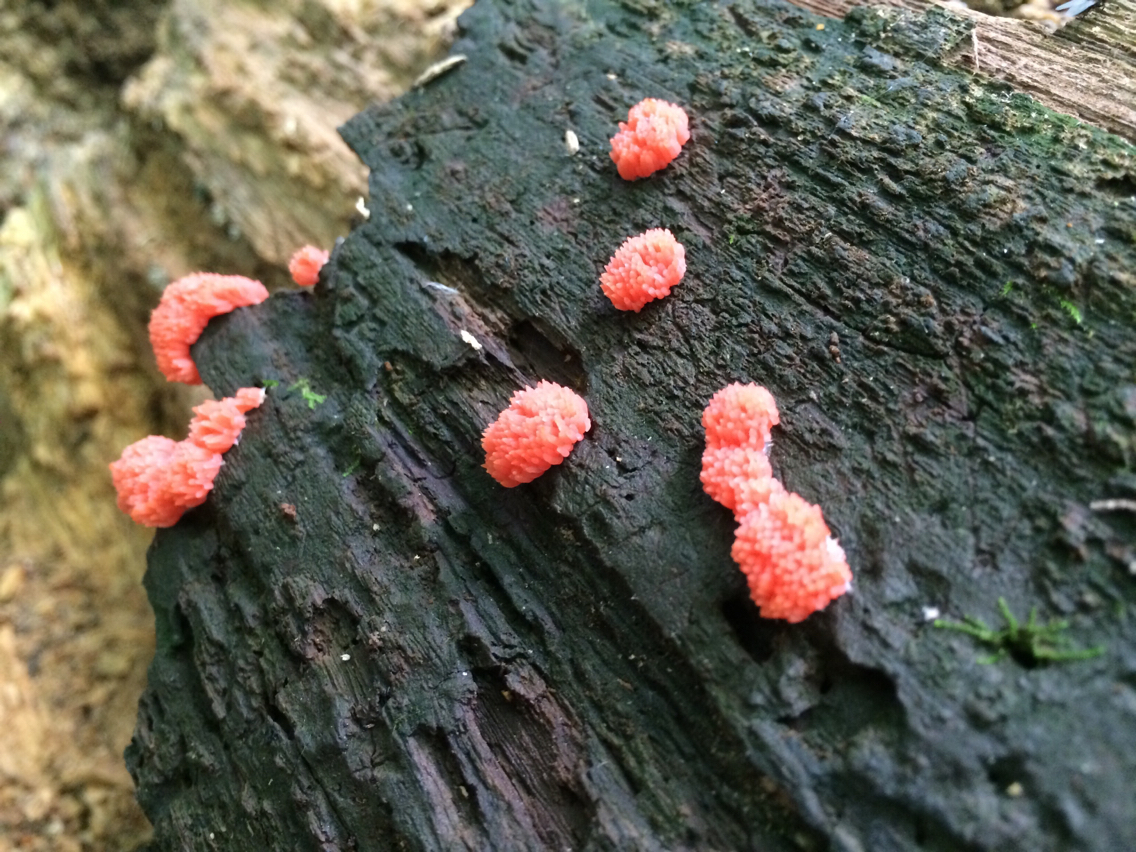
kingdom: Protozoa
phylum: Mycetozoa
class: Myxomycetes
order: Cribrariales
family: Tubiferaceae
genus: Tubifera
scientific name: Tubifera ferruginosa
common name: Red raspberry slime mold
